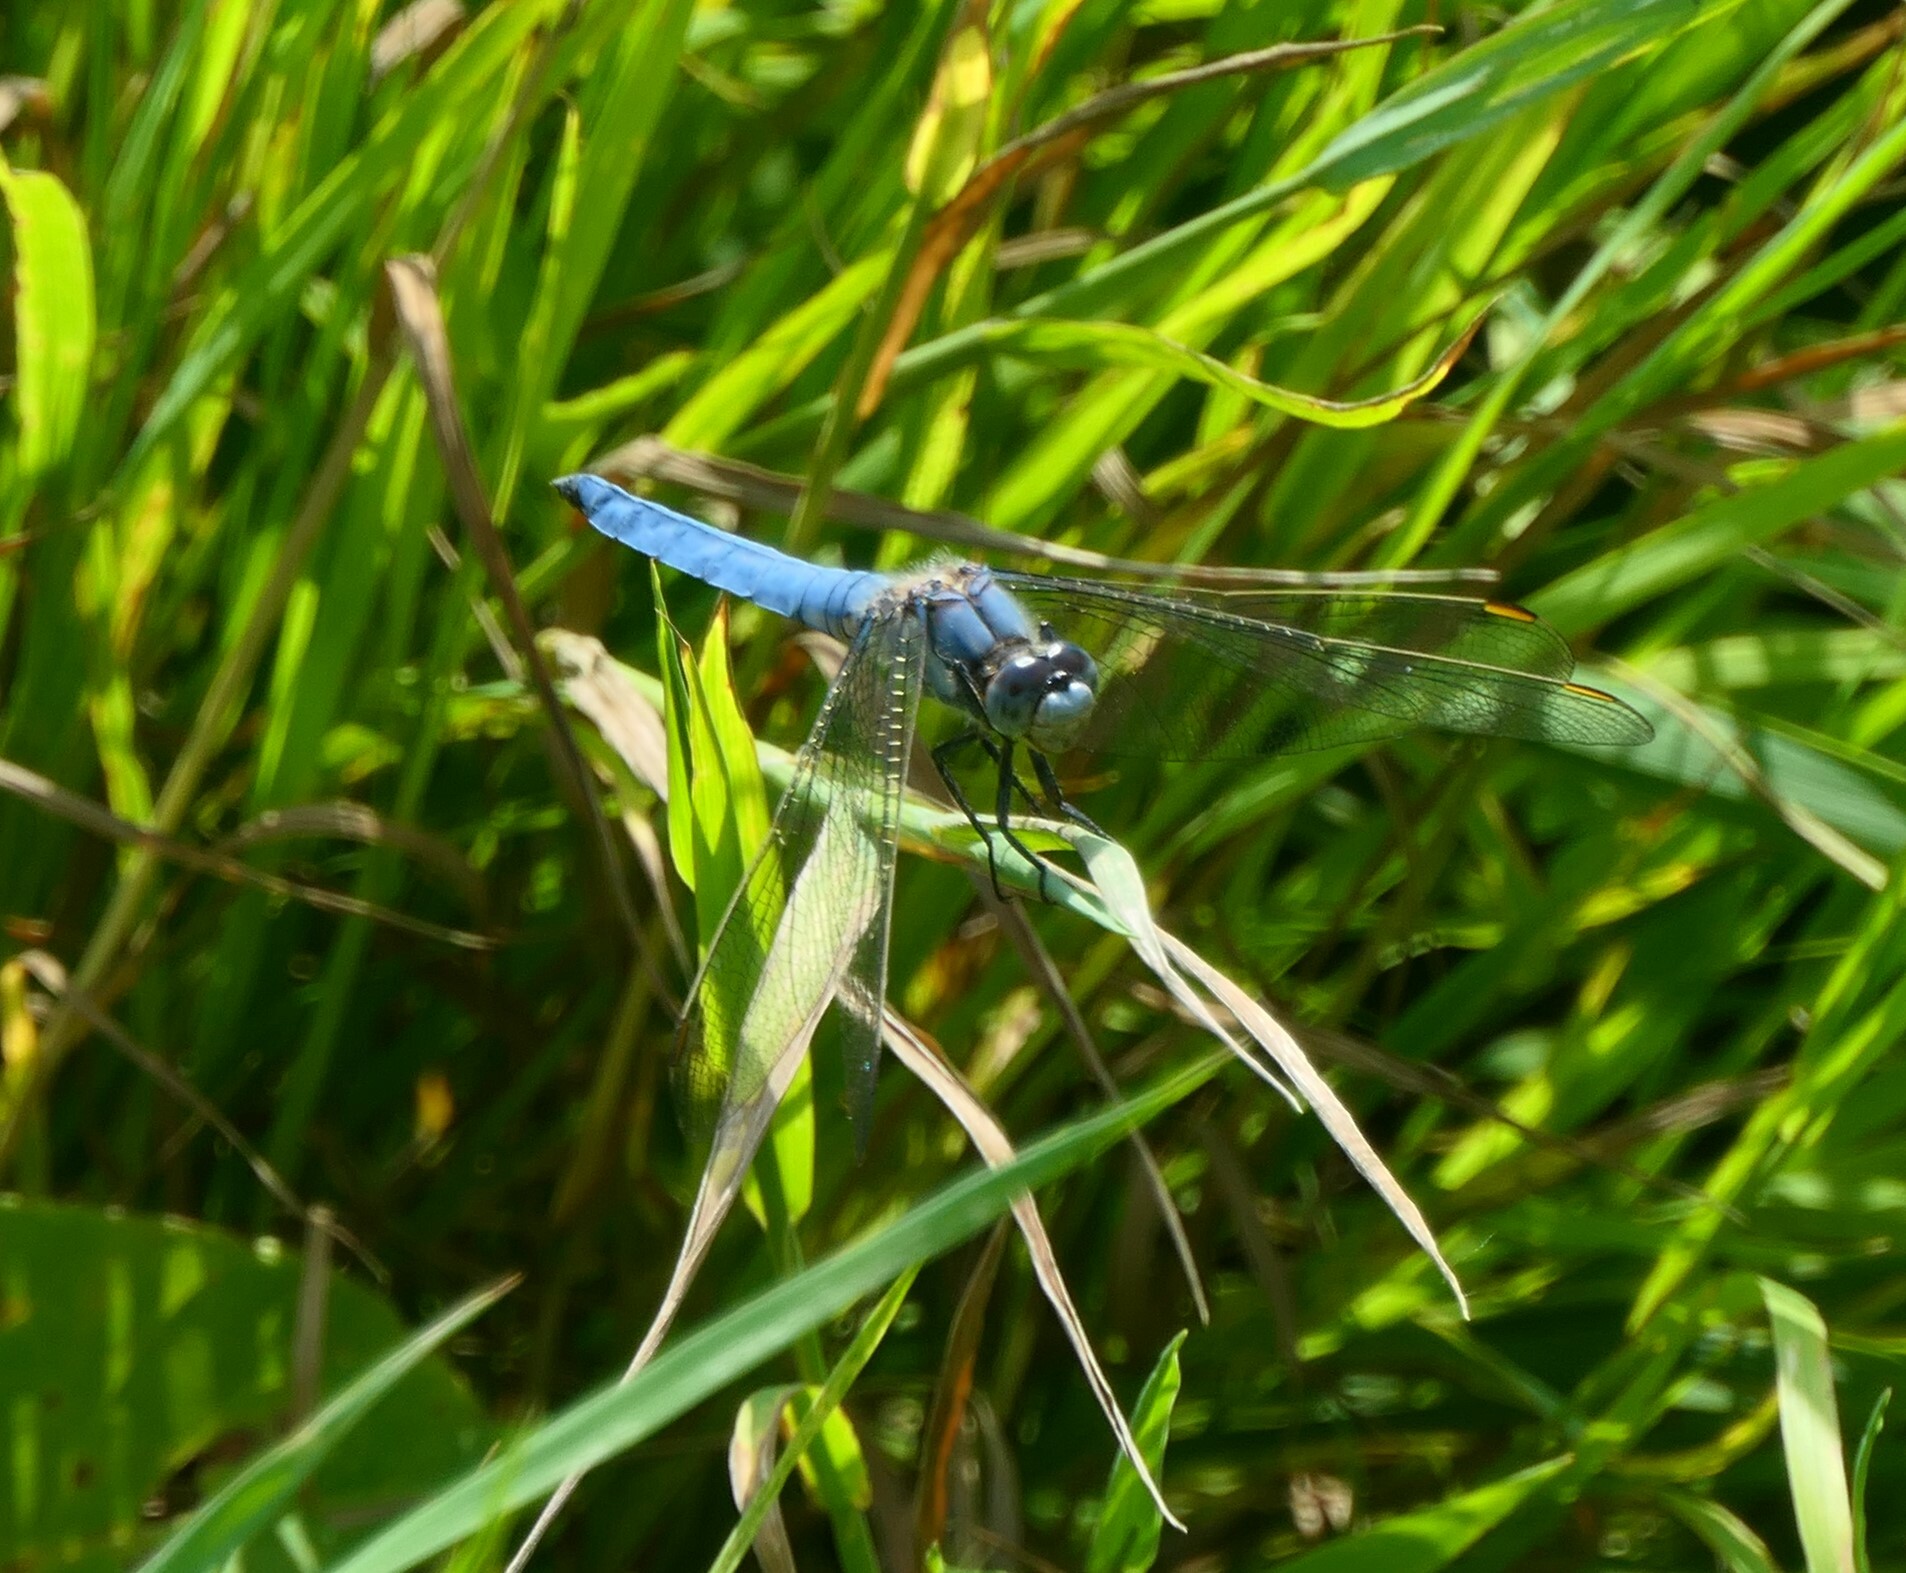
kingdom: Animalia
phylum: Arthropoda
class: Insecta
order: Odonata
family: Libellulidae
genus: Orthetrum
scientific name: Orthetrum brunneum
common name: Southern skimmer
